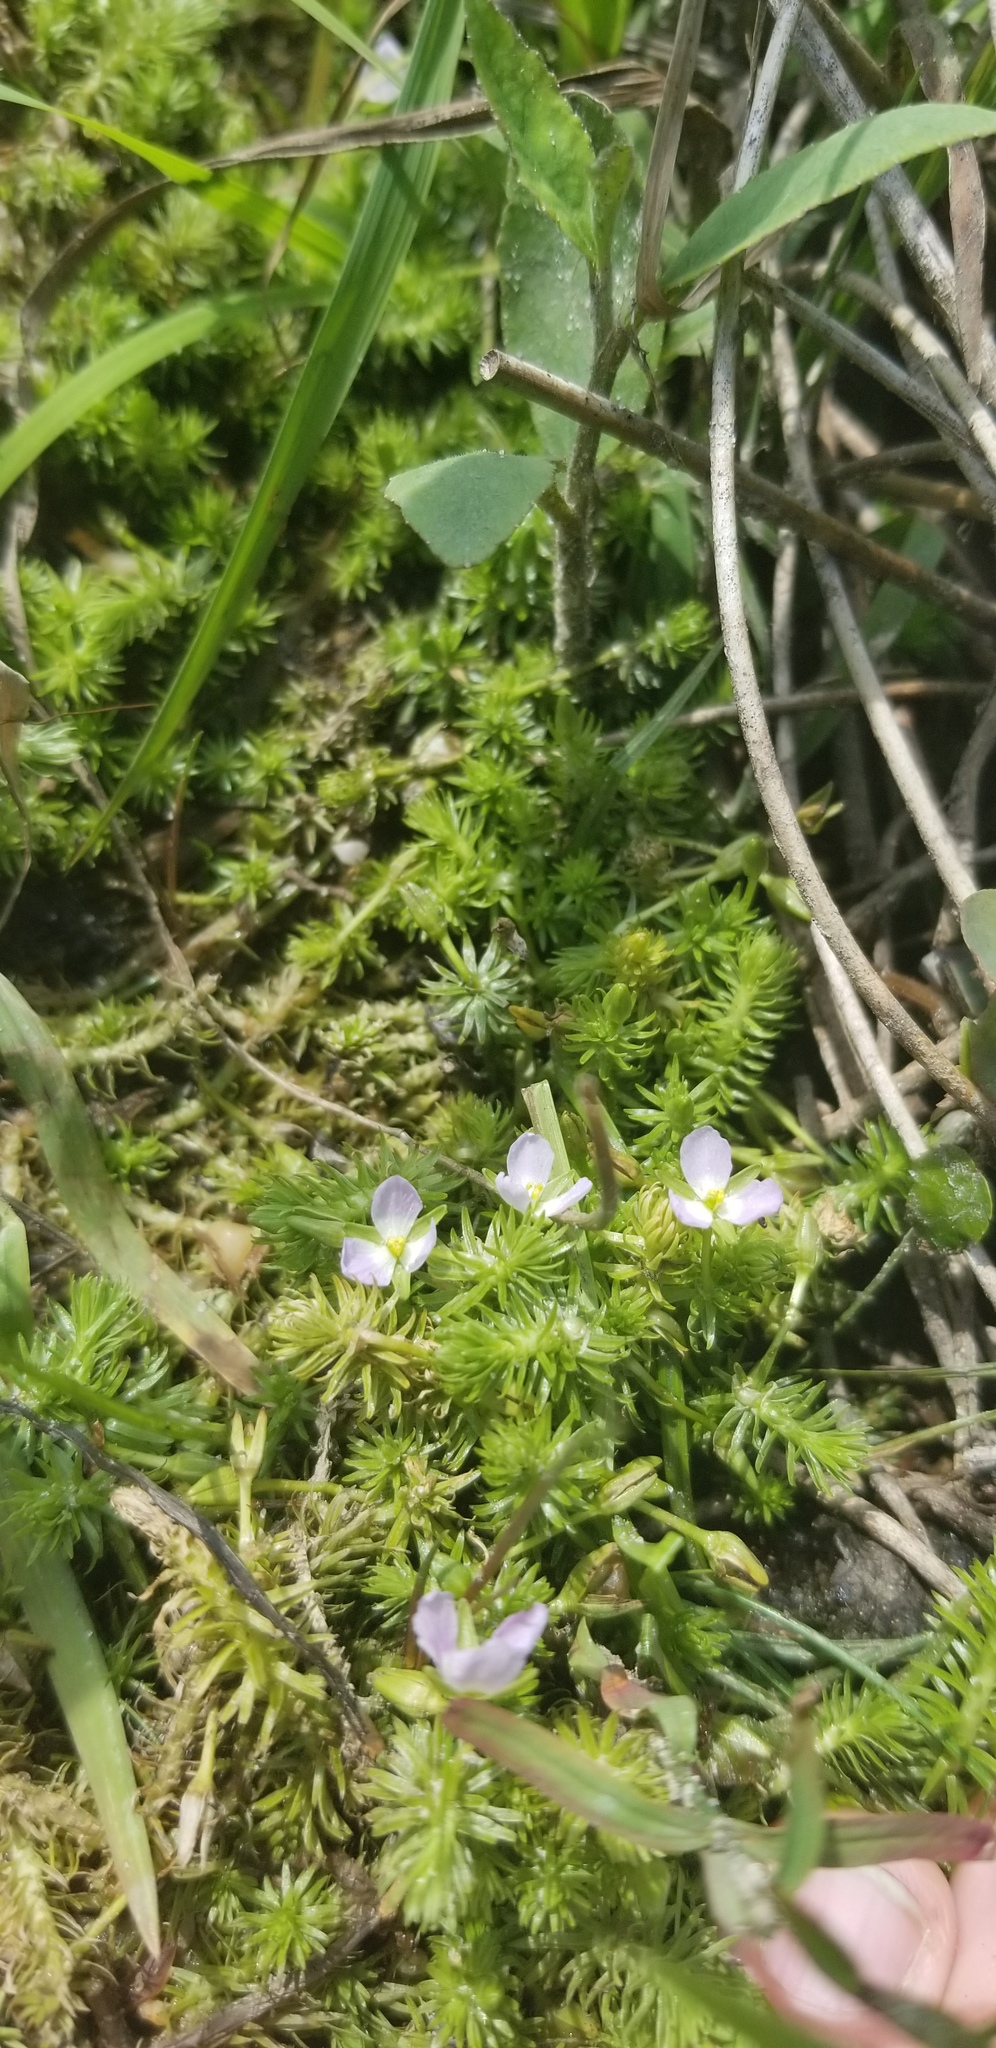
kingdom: Plantae
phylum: Tracheophyta
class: Liliopsida
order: Poales
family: Mayacaceae
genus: Mayaca
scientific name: Mayaca fluviatilis
